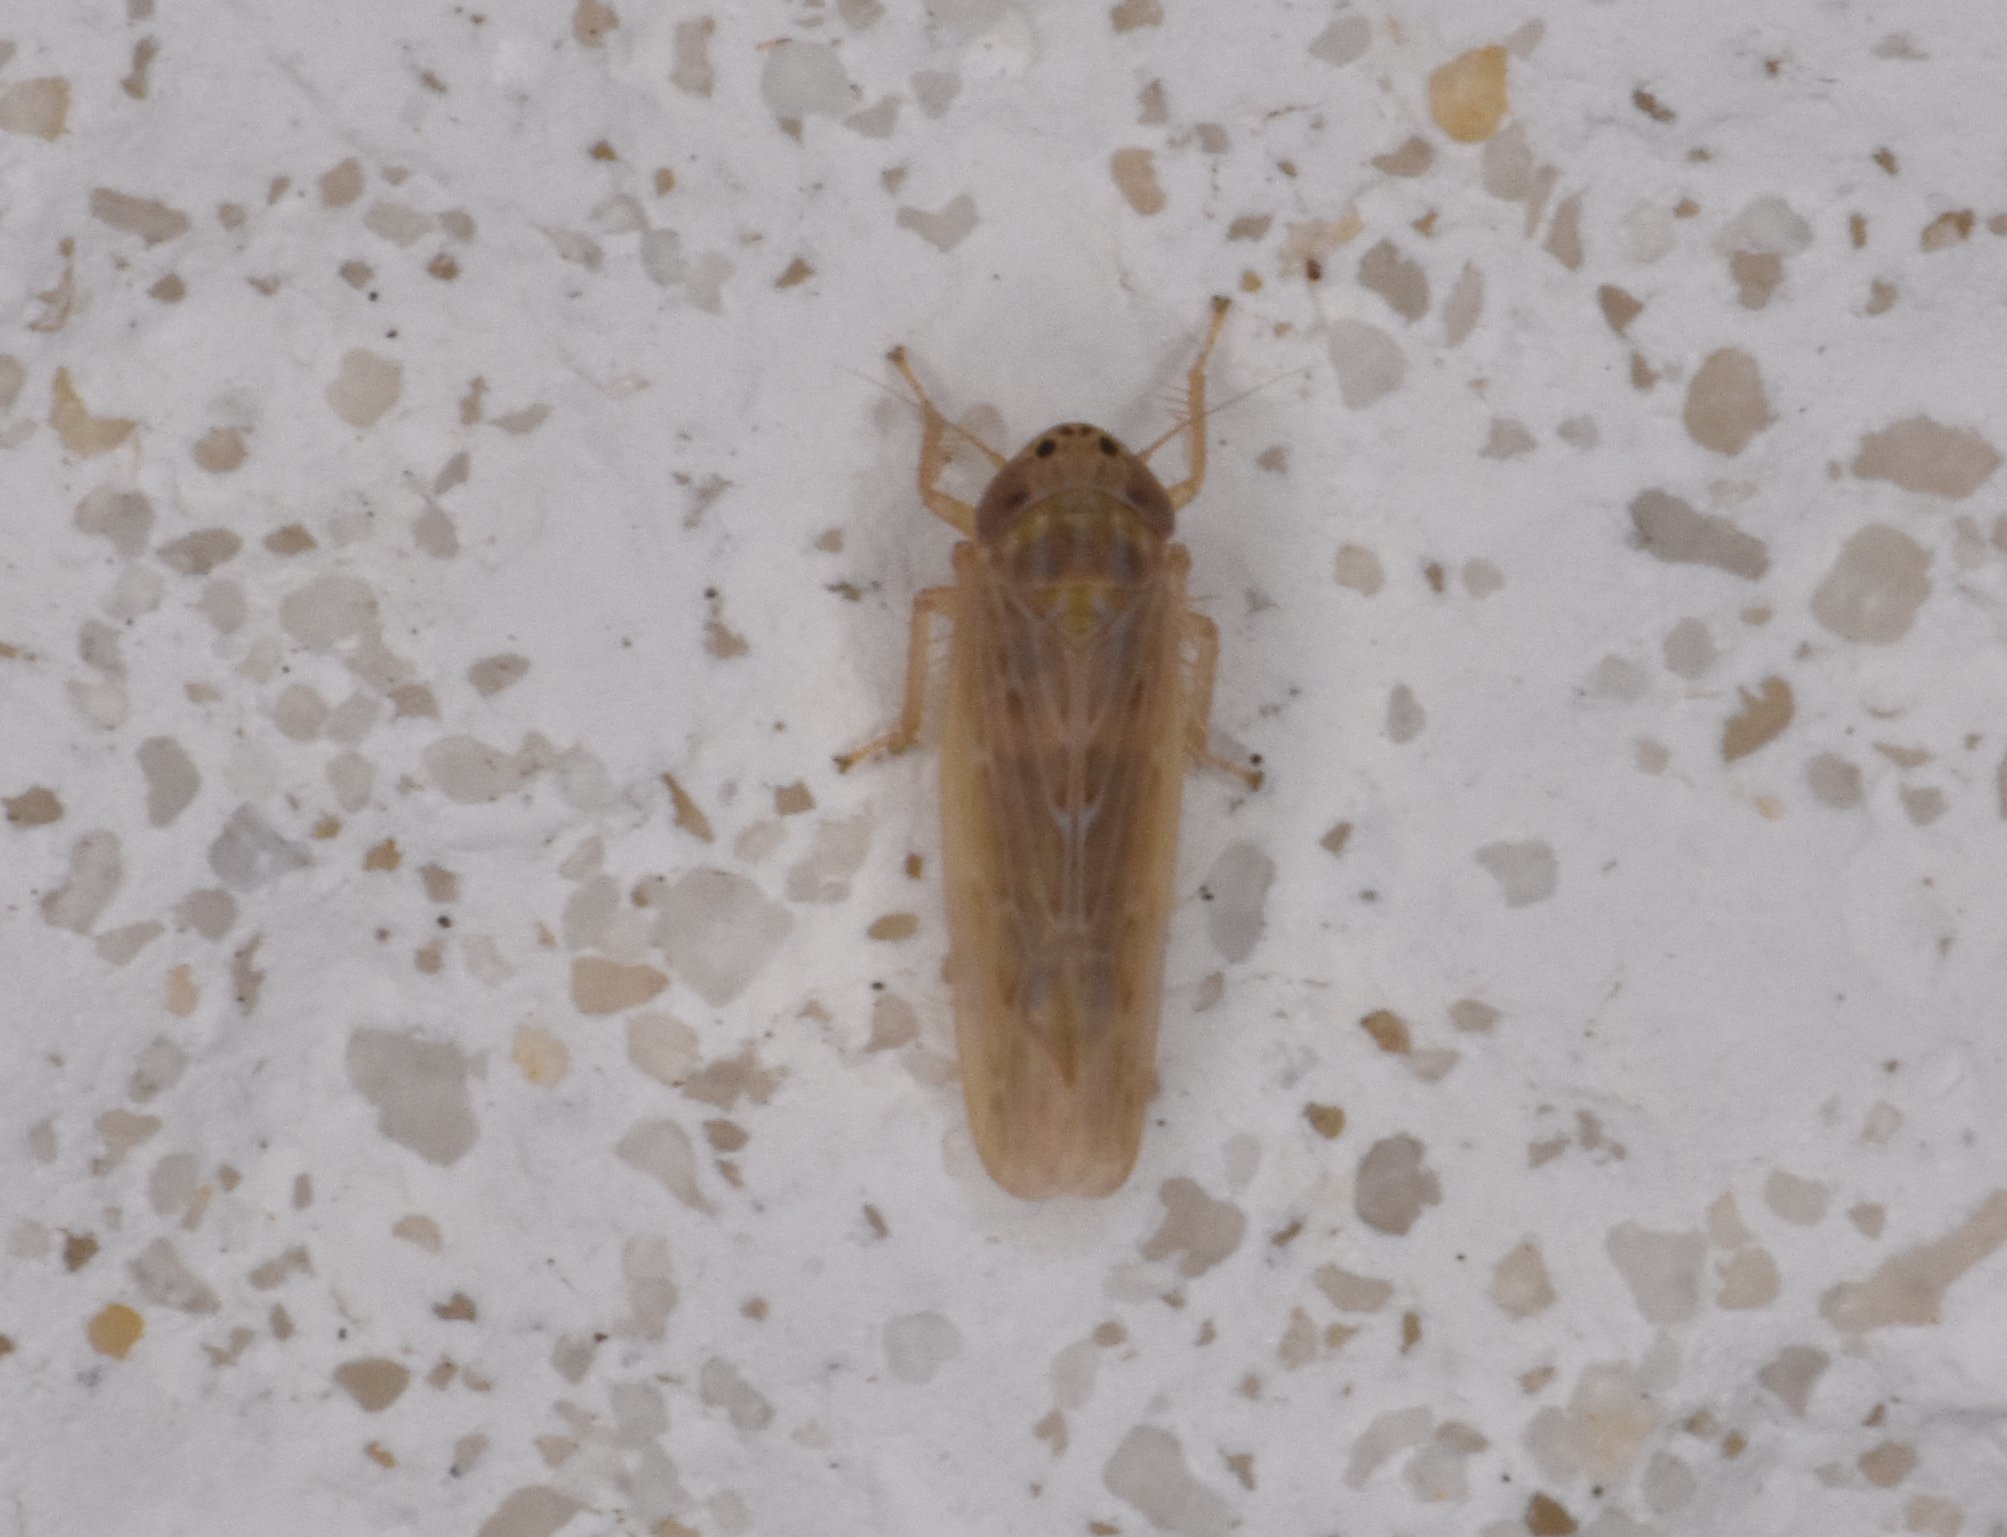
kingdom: Animalia
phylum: Arthropoda
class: Insecta
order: Hemiptera
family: Cicadellidae
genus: Graminella
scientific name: Graminella sonora
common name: Lesser lawn leafhopper
